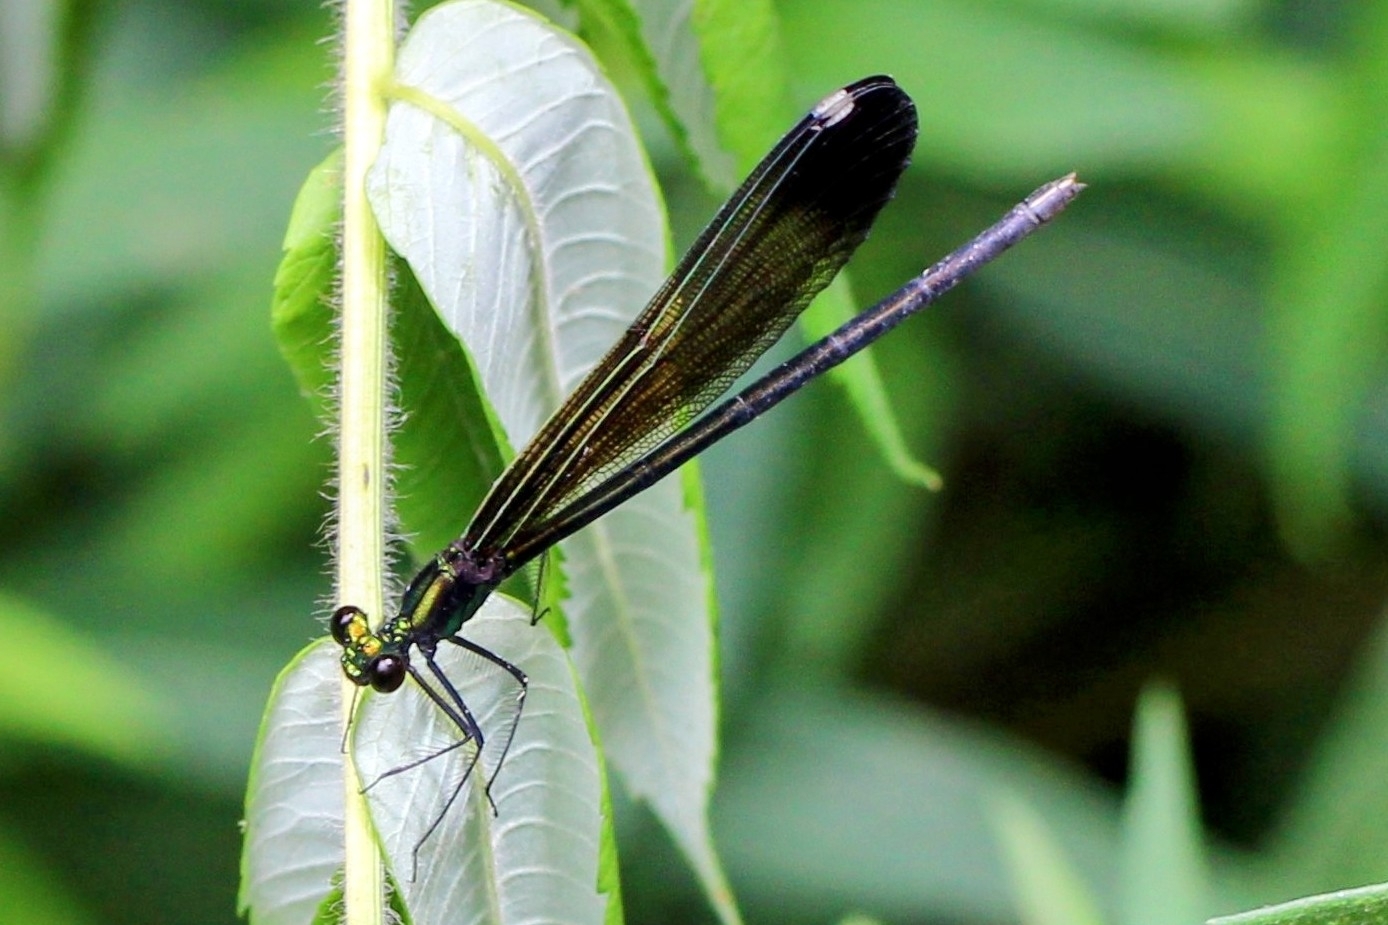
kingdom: Animalia
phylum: Arthropoda
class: Insecta
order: Odonata
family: Calopterygidae
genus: Calopteryx
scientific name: Calopteryx maculata
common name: Ebony jewelwing
